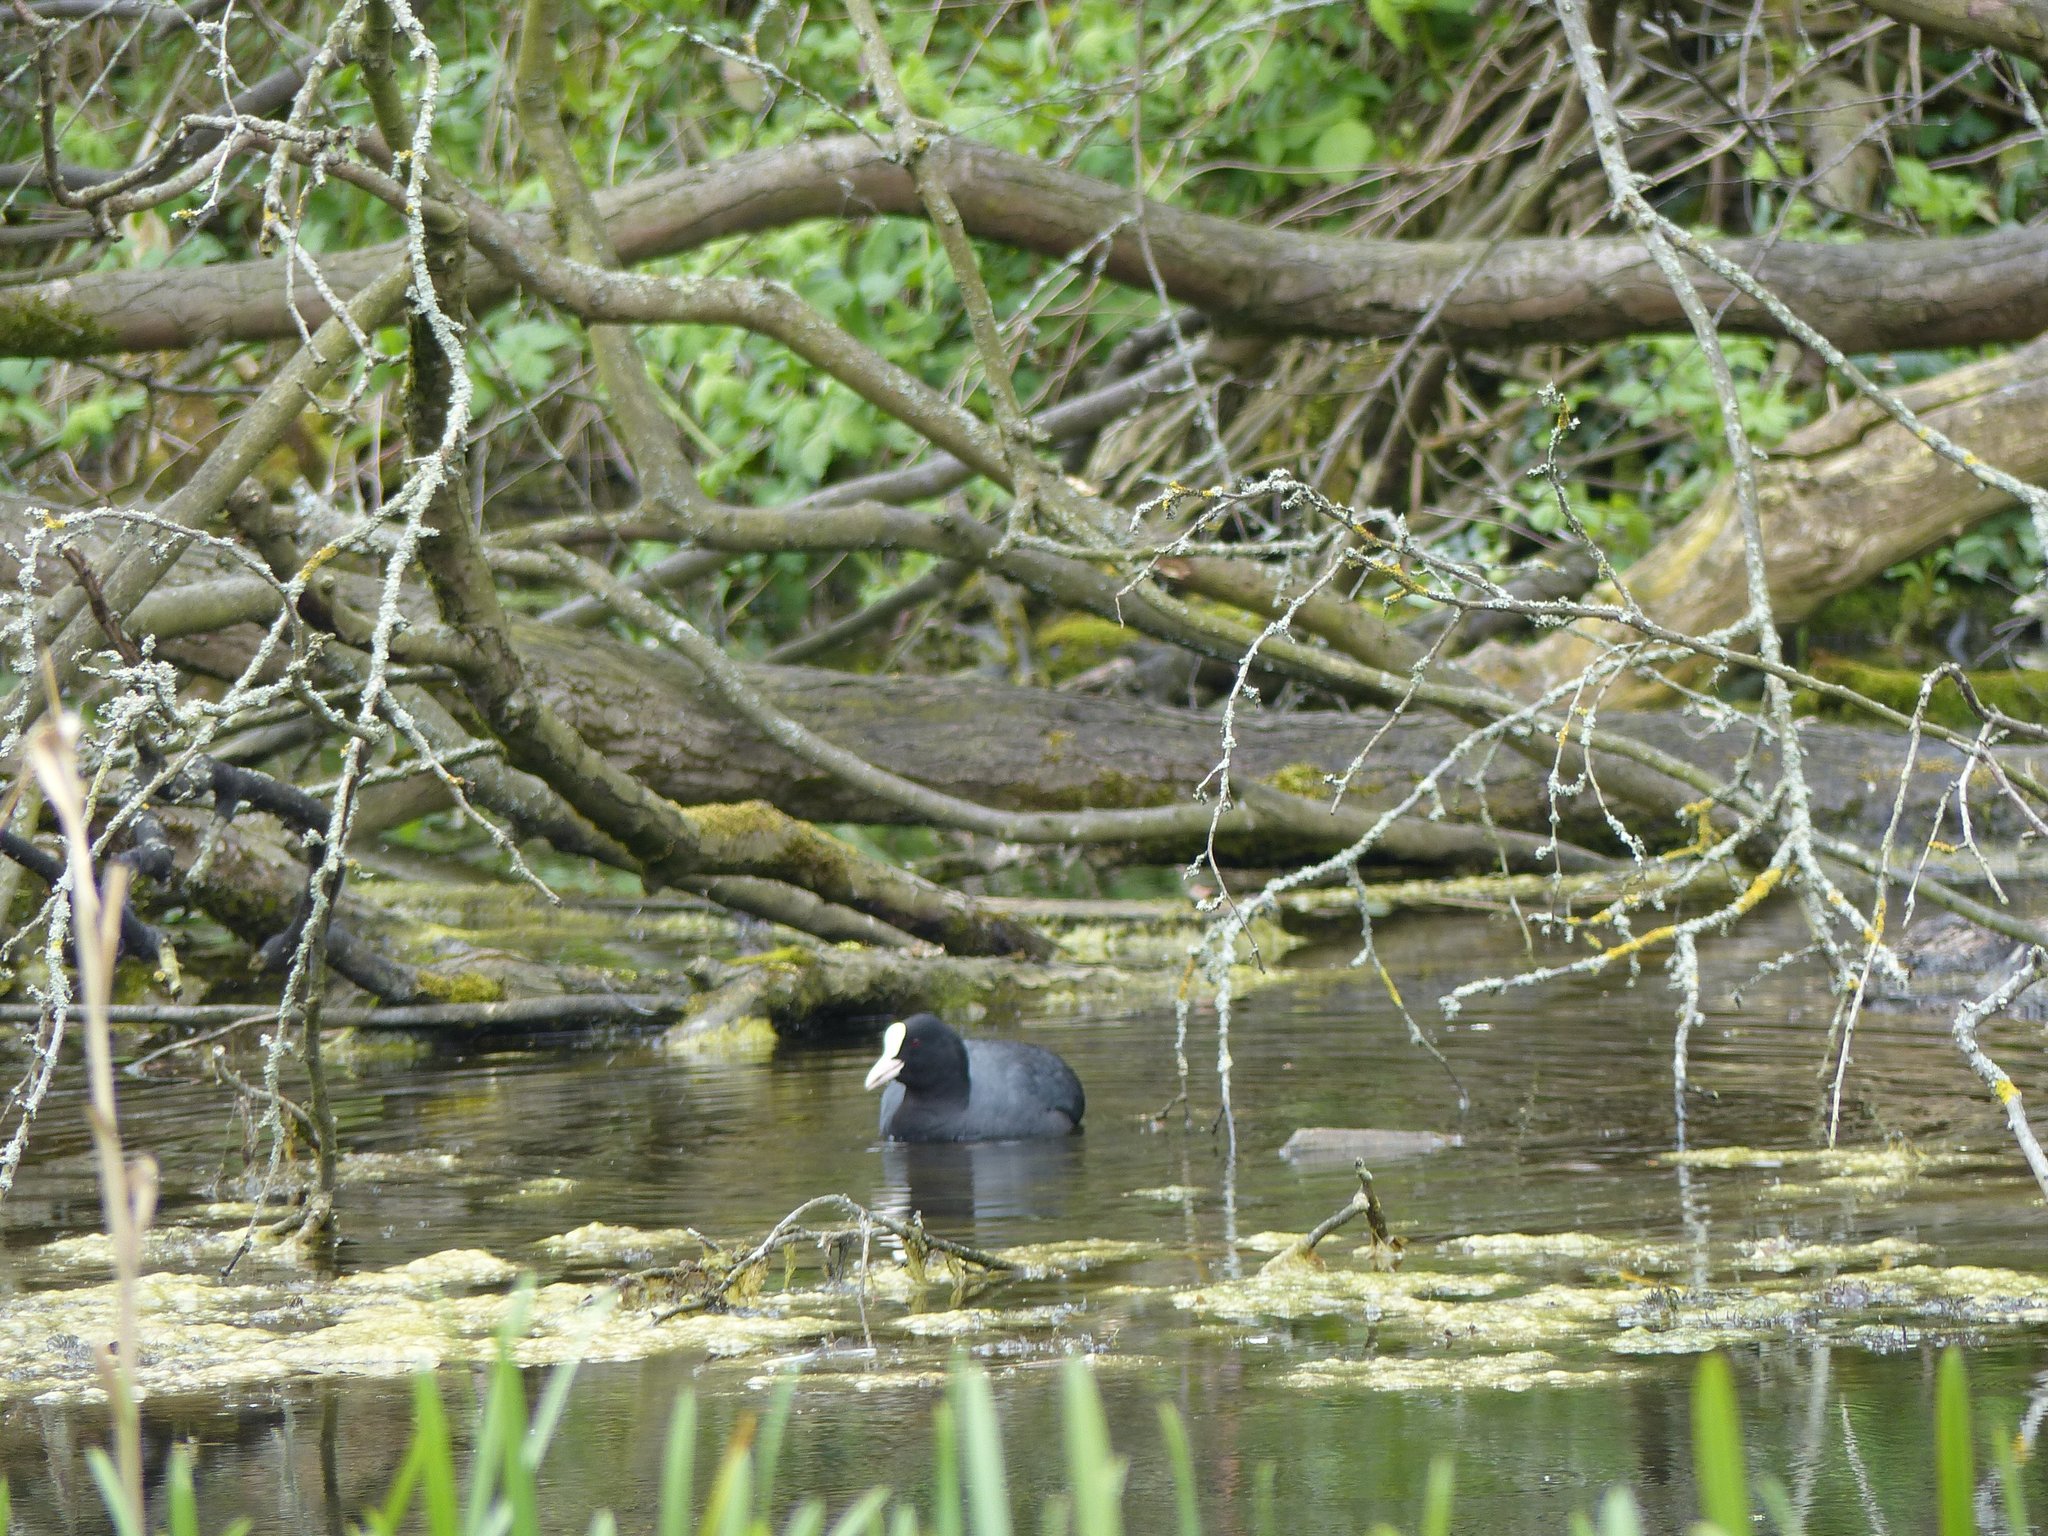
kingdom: Animalia
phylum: Chordata
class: Aves
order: Gruiformes
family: Rallidae
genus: Fulica
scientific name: Fulica atra
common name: Eurasian coot
